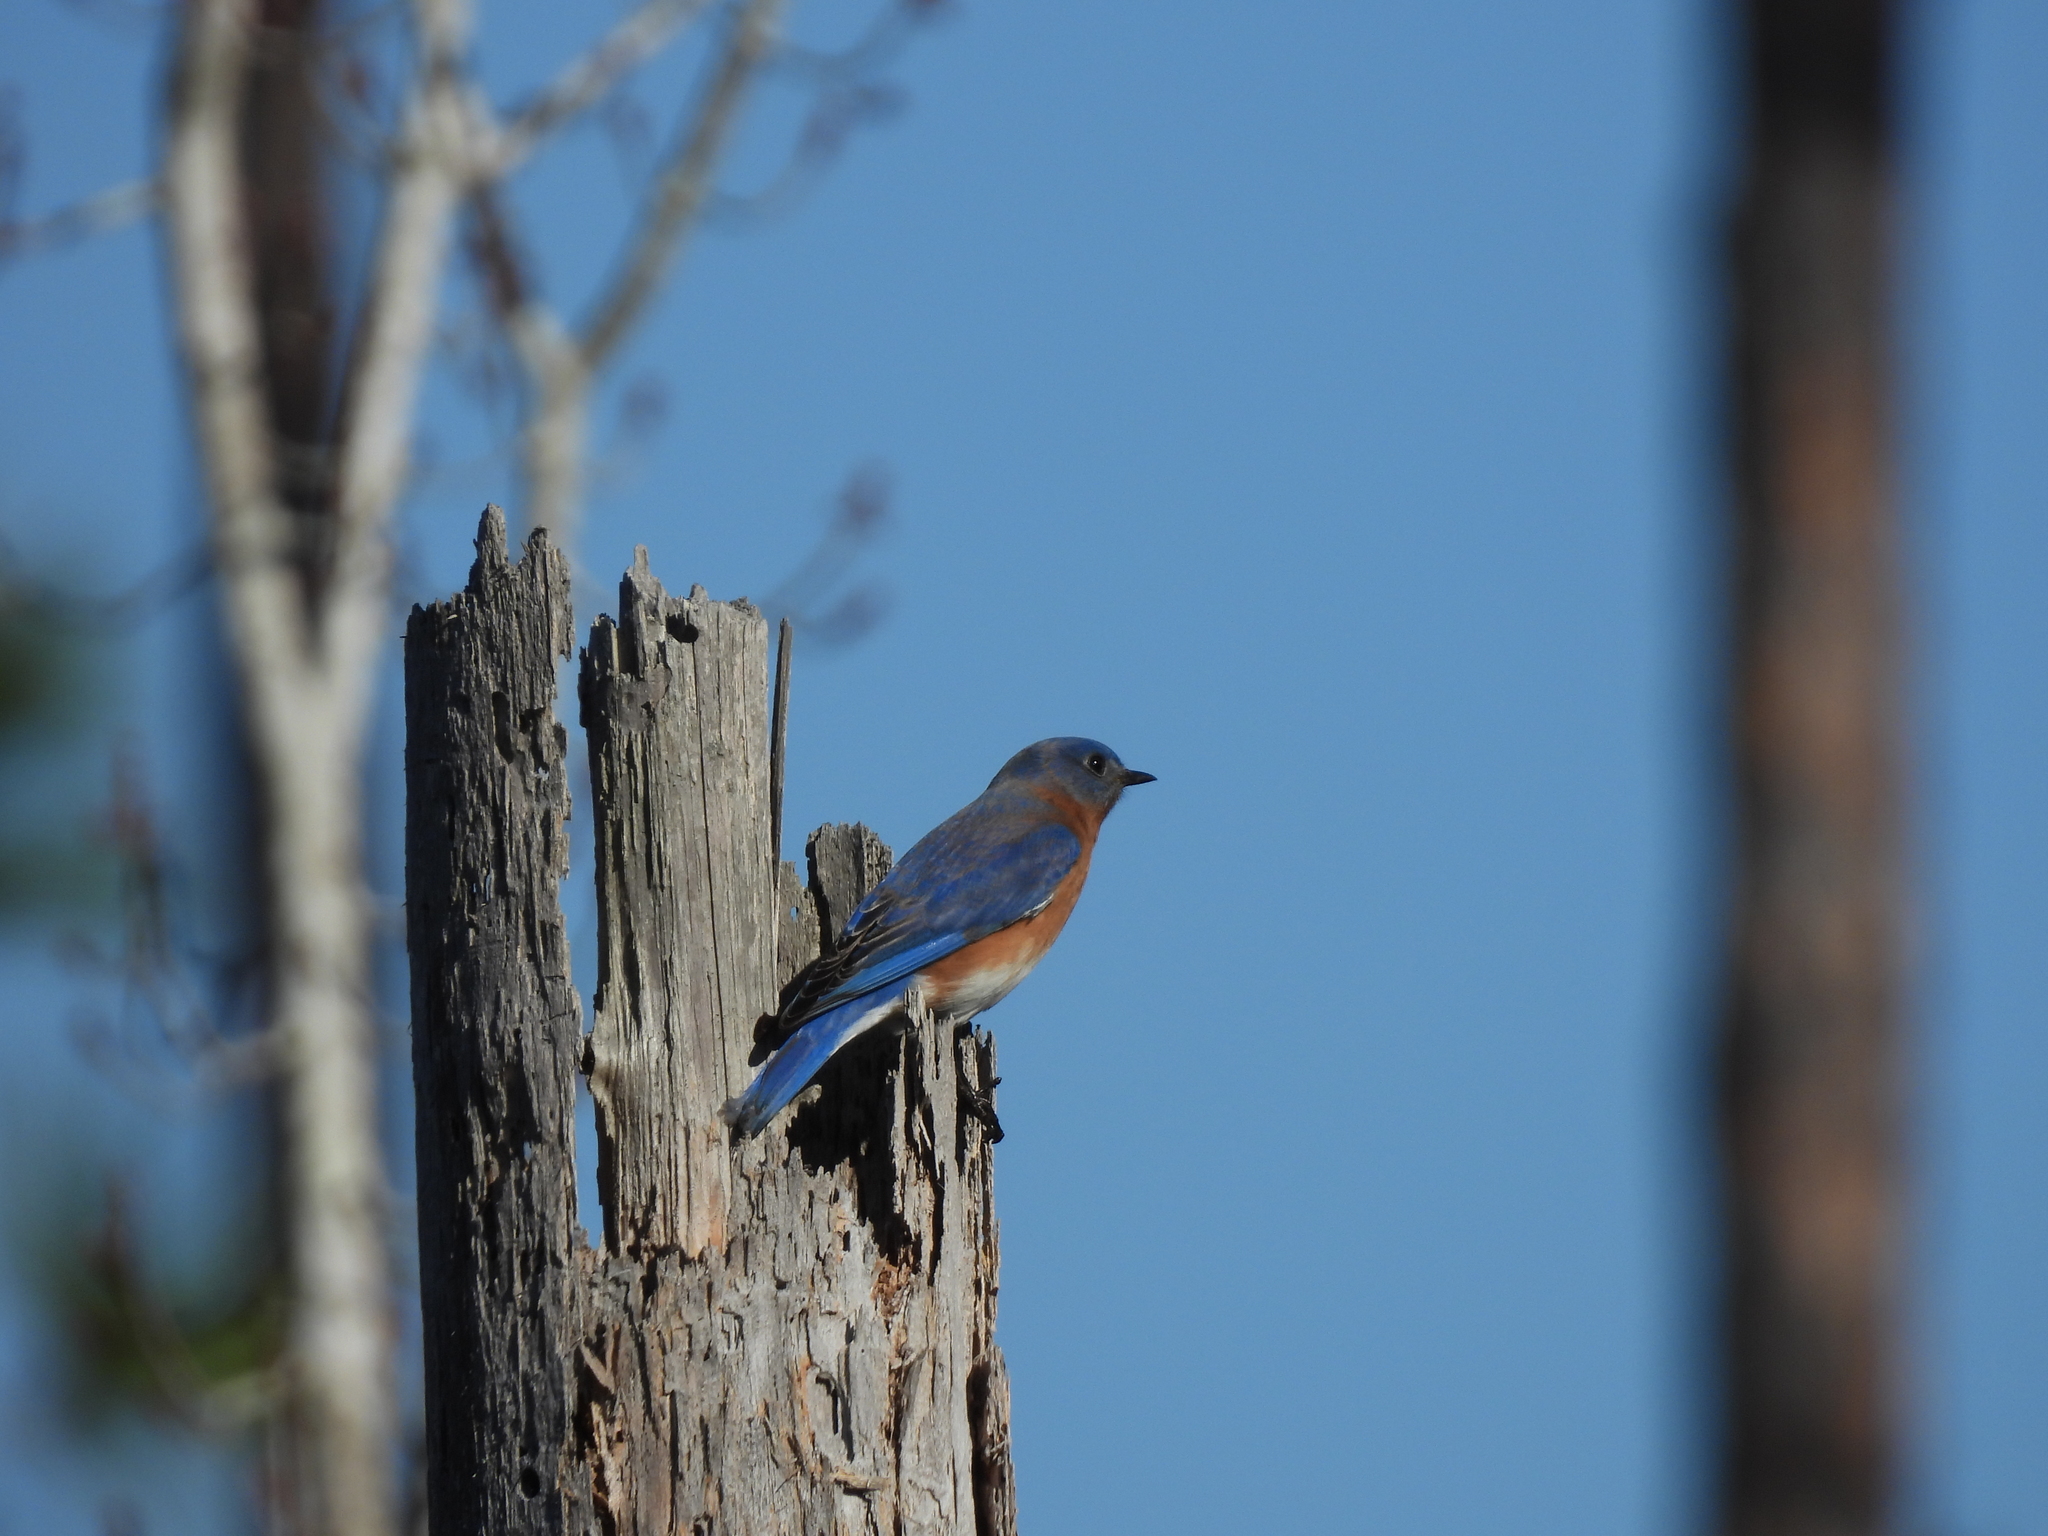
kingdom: Animalia
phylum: Chordata
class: Aves
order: Passeriformes
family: Turdidae
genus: Sialia
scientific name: Sialia sialis
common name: Eastern bluebird
